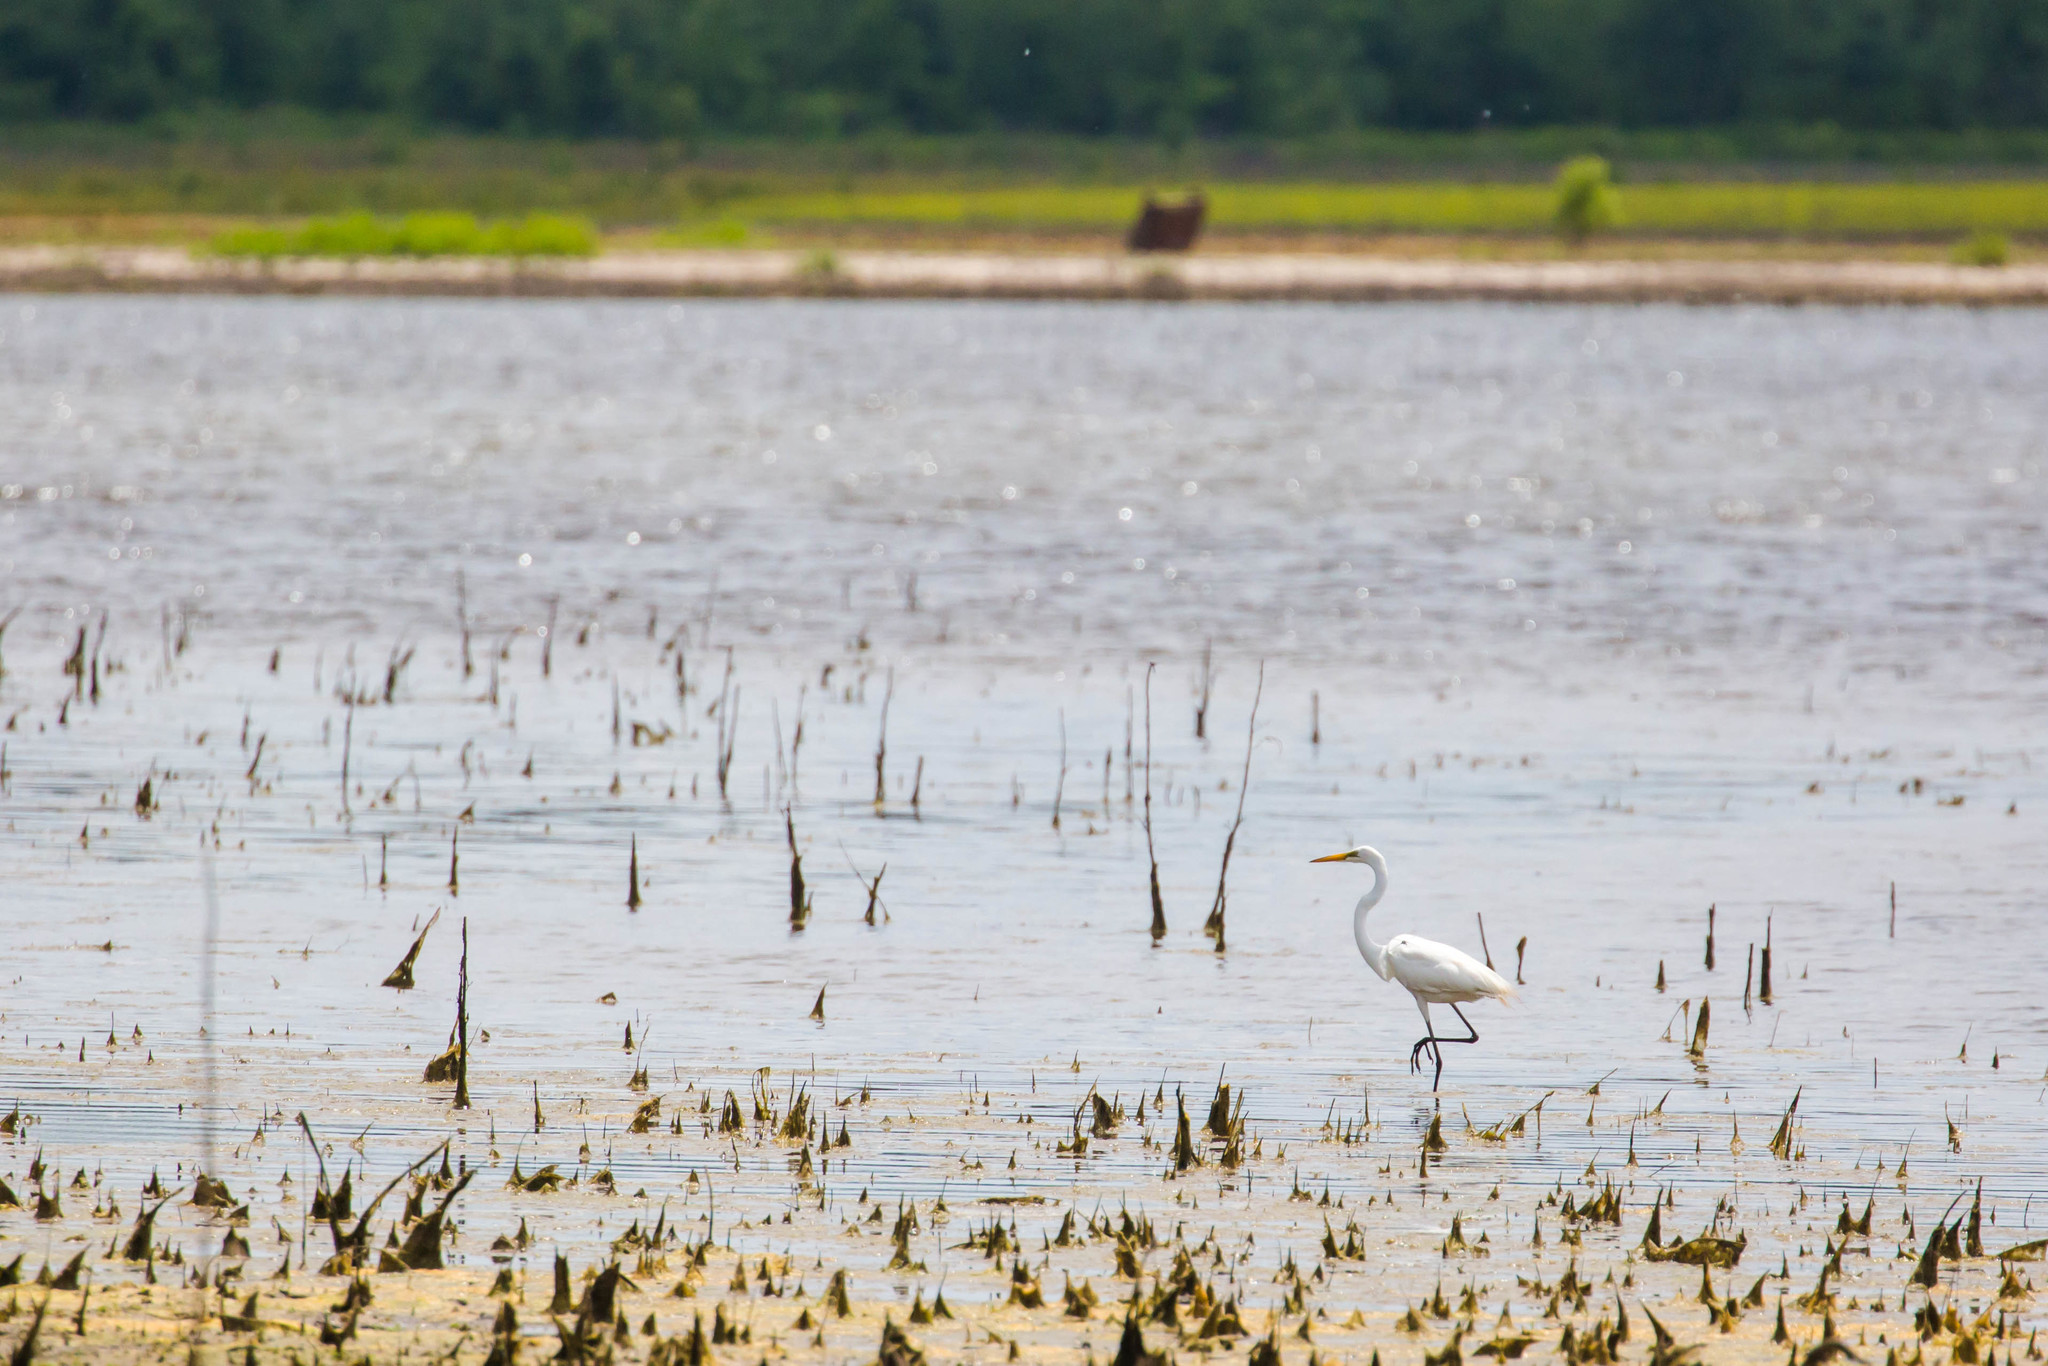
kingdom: Animalia
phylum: Chordata
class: Aves
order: Pelecaniformes
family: Ardeidae
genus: Ardea
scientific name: Ardea alba
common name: Great egret
